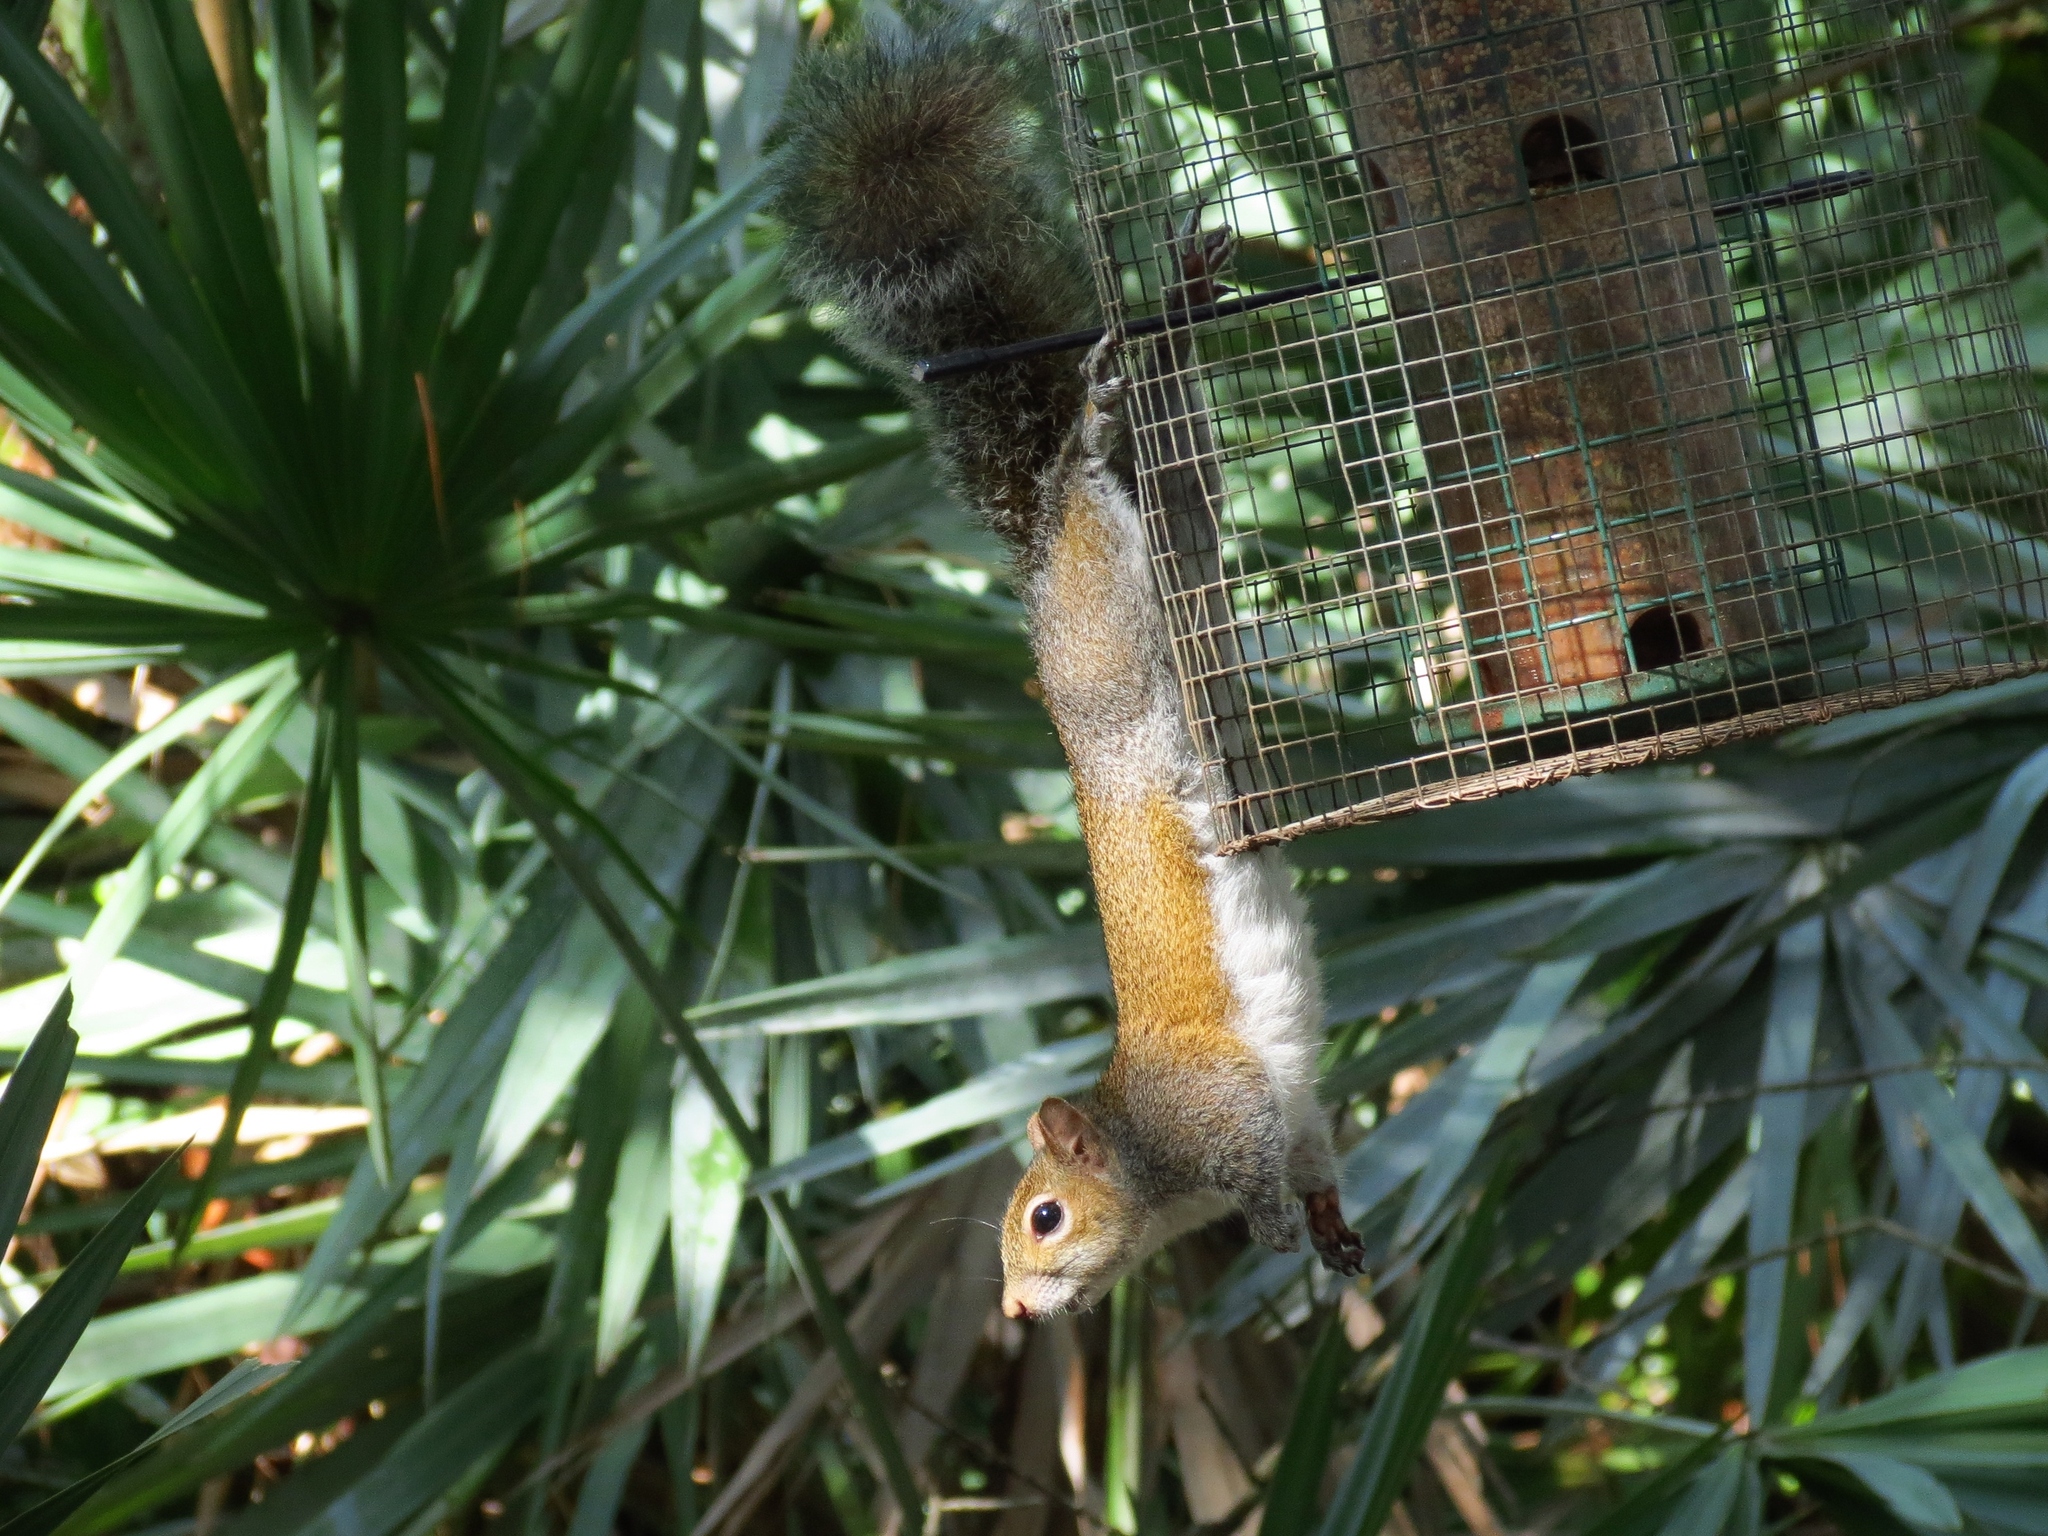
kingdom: Animalia
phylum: Chordata
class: Mammalia
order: Rodentia
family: Sciuridae
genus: Sciurus
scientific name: Sciurus carolinensis
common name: Eastern gray squirrel
